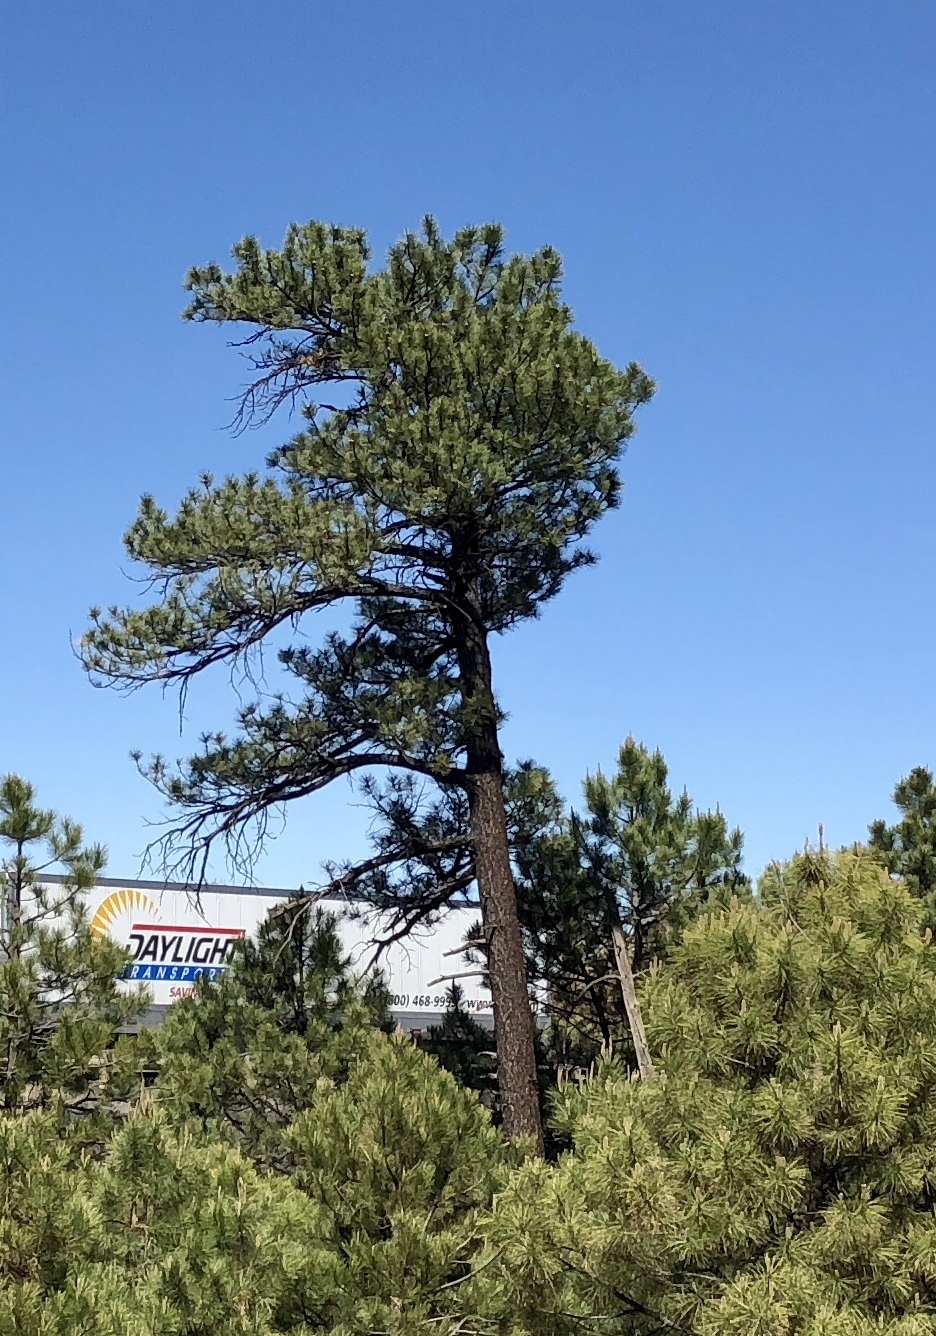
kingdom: Plantae
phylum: Tracheophyta
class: Pinopsida
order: Pinales
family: Pinaceae
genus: Pinus
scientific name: Pinus ponderosa
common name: Western yellow-pine
